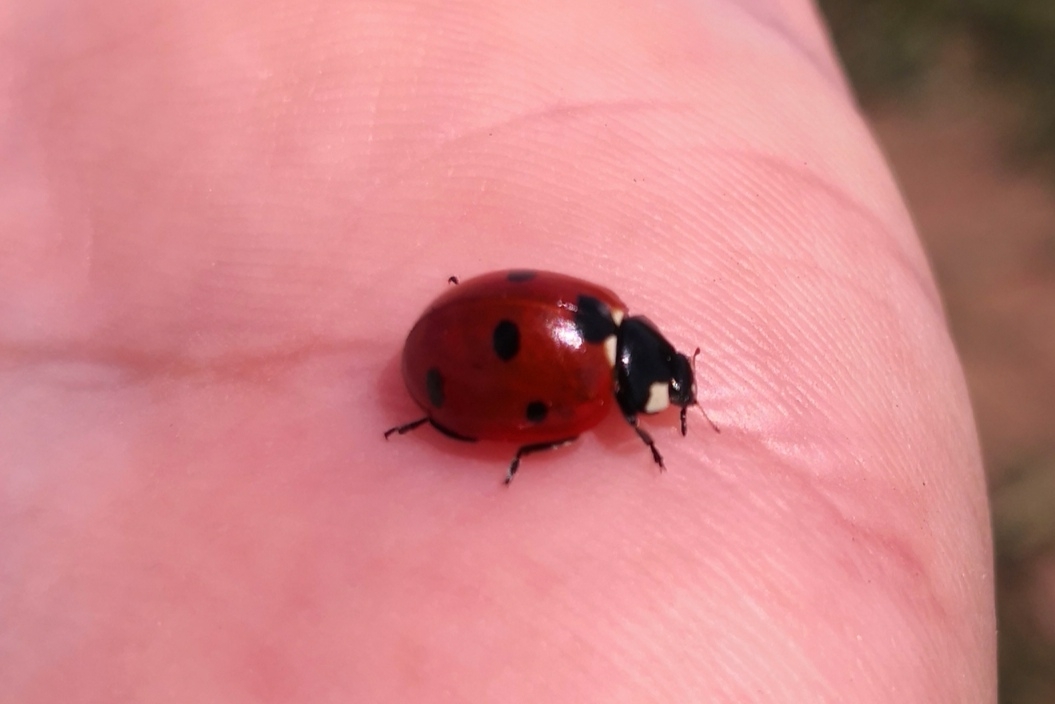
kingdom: Animalia
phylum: Arthropoda
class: Insecta
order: Coleoptera
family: Coccinellidae
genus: Coccinella
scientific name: Coccinella septempunctata
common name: Sevenspotted lady beetle
